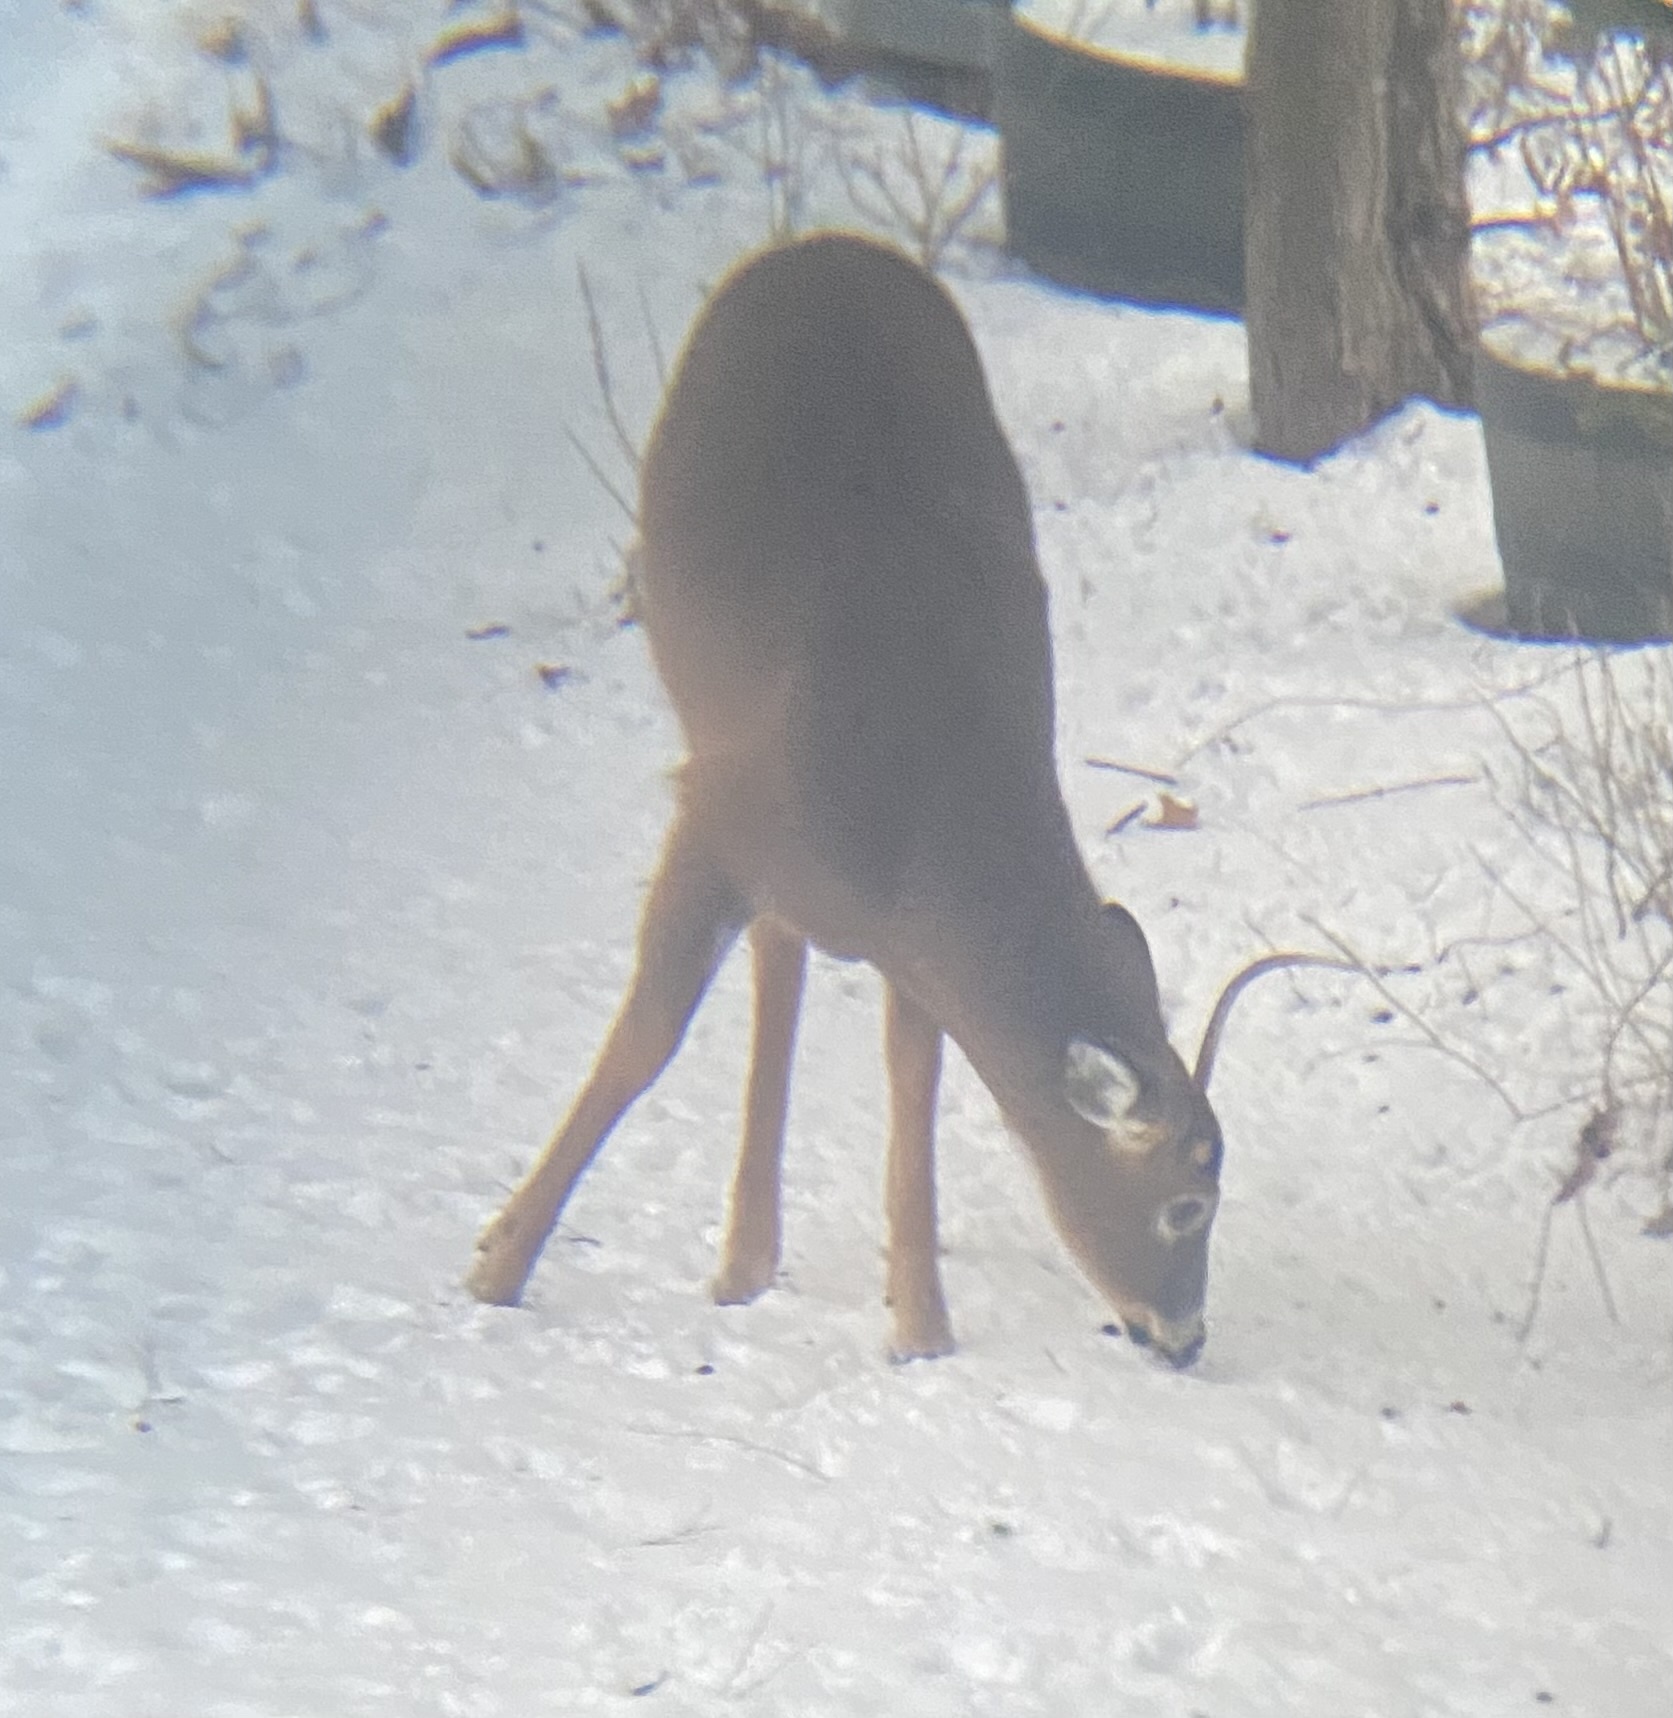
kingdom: Animalia
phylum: Chordata
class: Mammalia
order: Artiodactyla
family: Cervidae
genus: Odocoileus
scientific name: Odocoileus virginianus
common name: White-tailed deer
